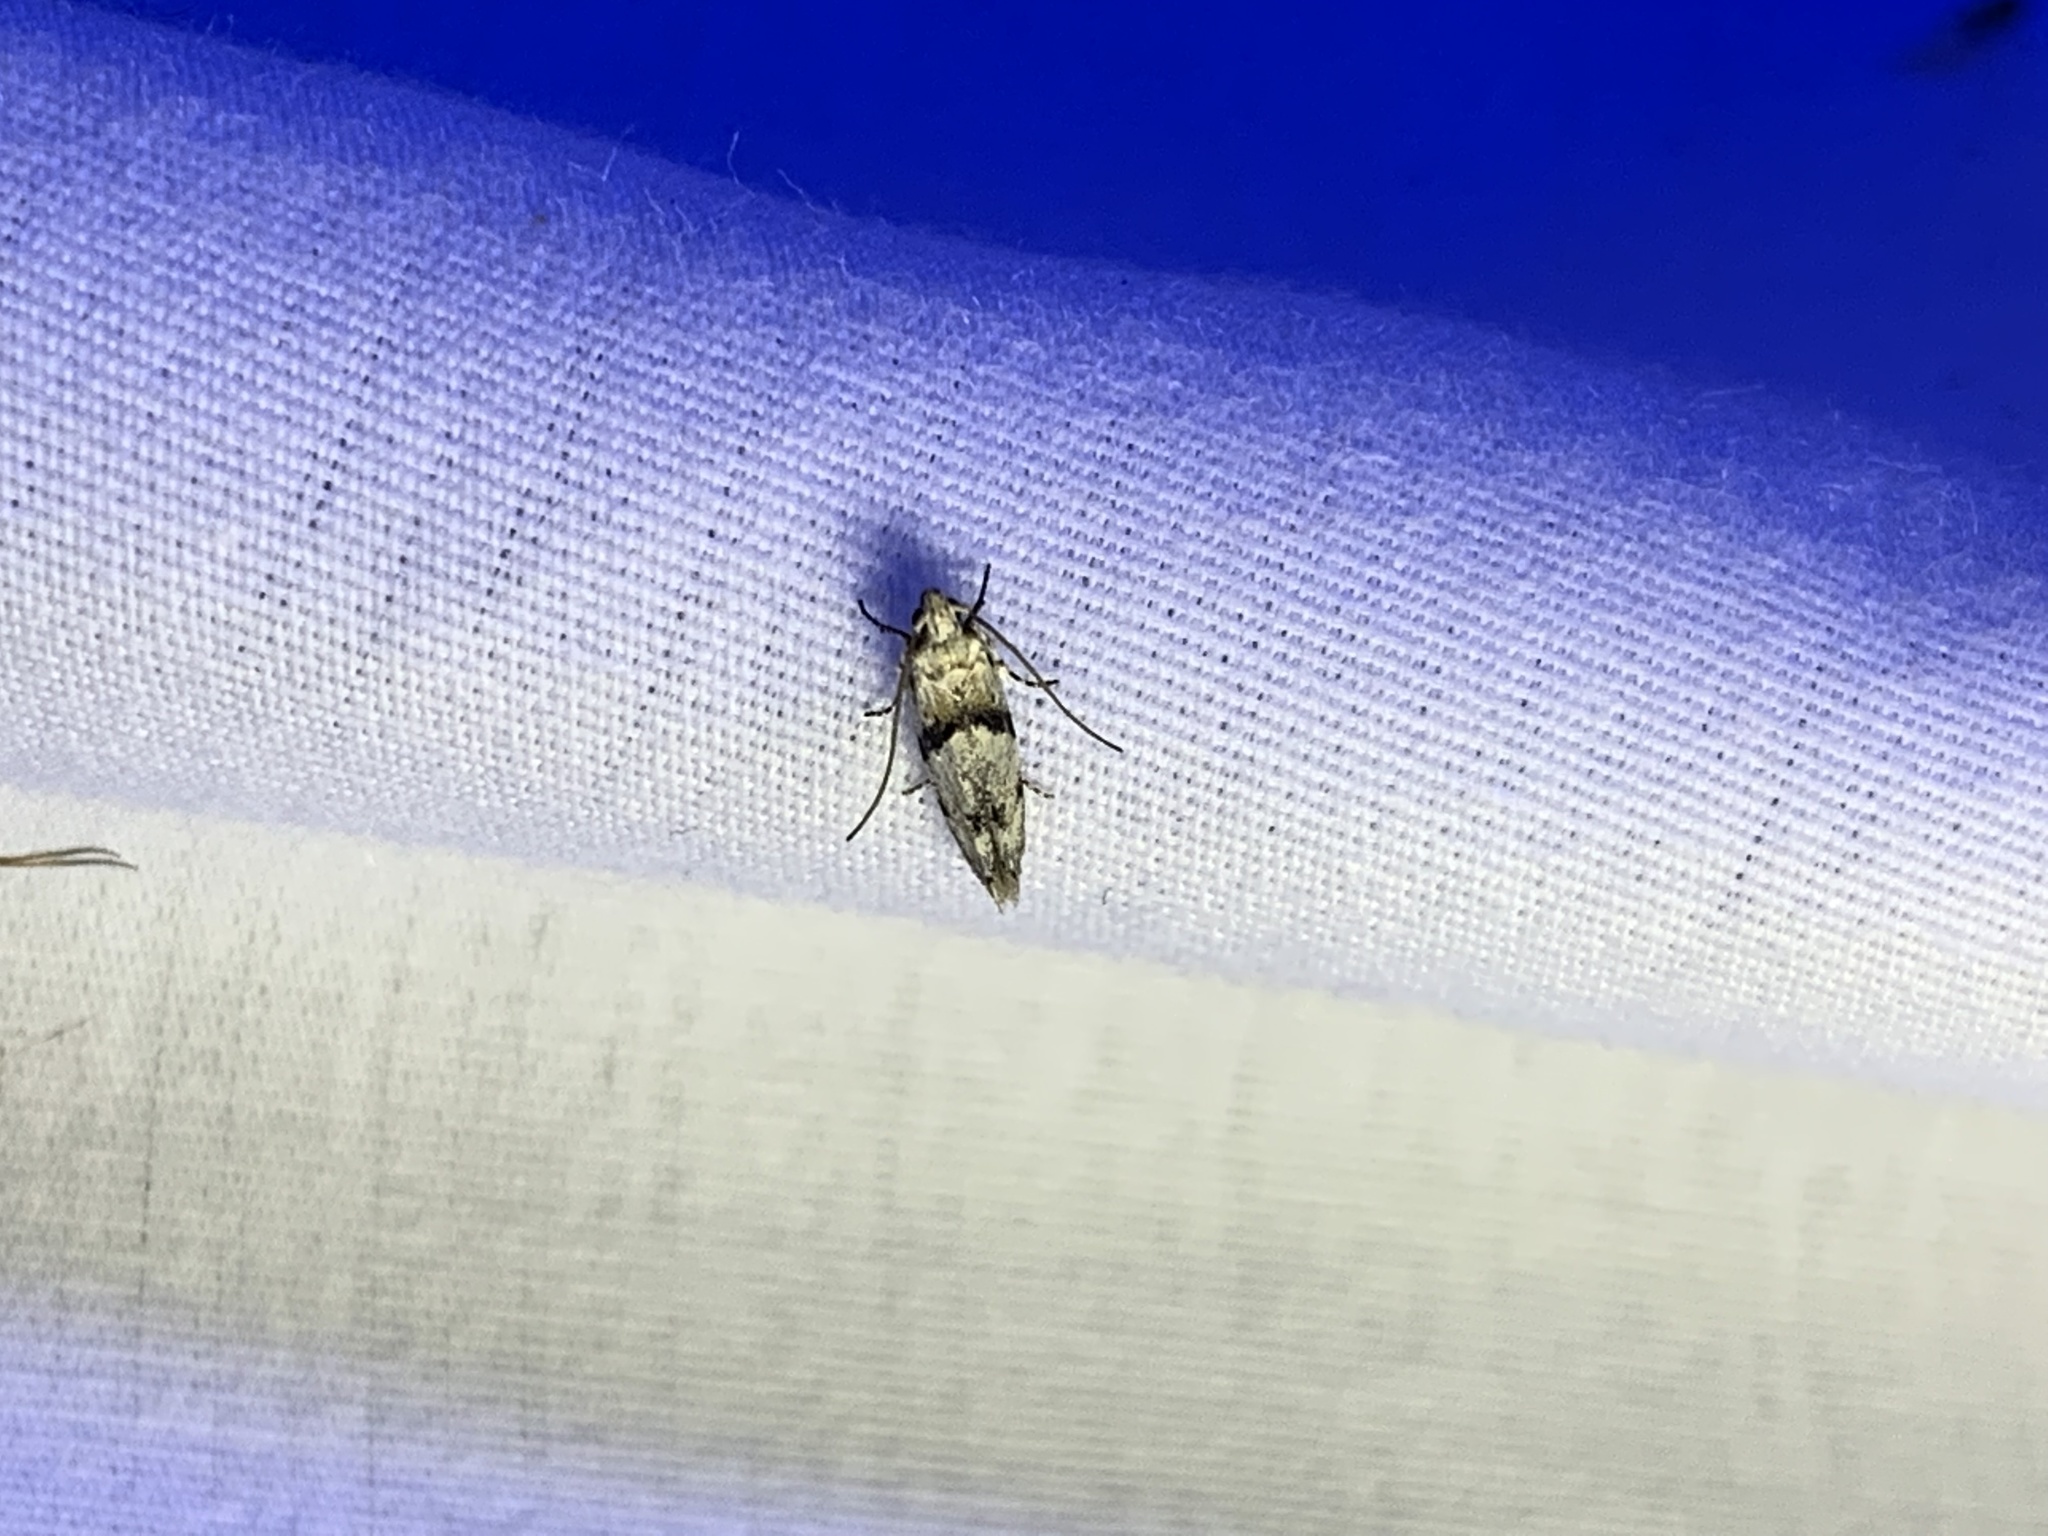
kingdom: Animalia
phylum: Arthropoda
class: Insecta
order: Lepidoptera
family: Gelechiidae
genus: Arogalea
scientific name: Arogalea cristifasciella
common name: White stripe-backed moth
